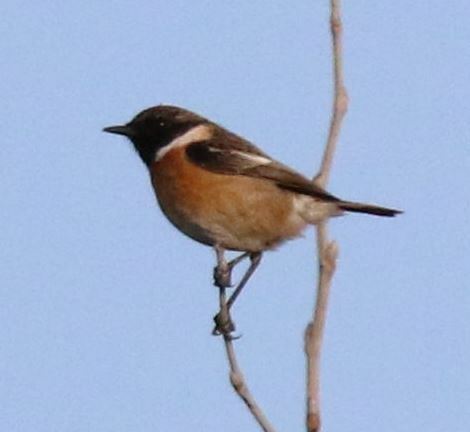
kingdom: Animalia
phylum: Chordata
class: Aves
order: Passeriformes
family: Muscicapidae
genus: Saxicola
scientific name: Saxicola rubicola
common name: European stonechat
